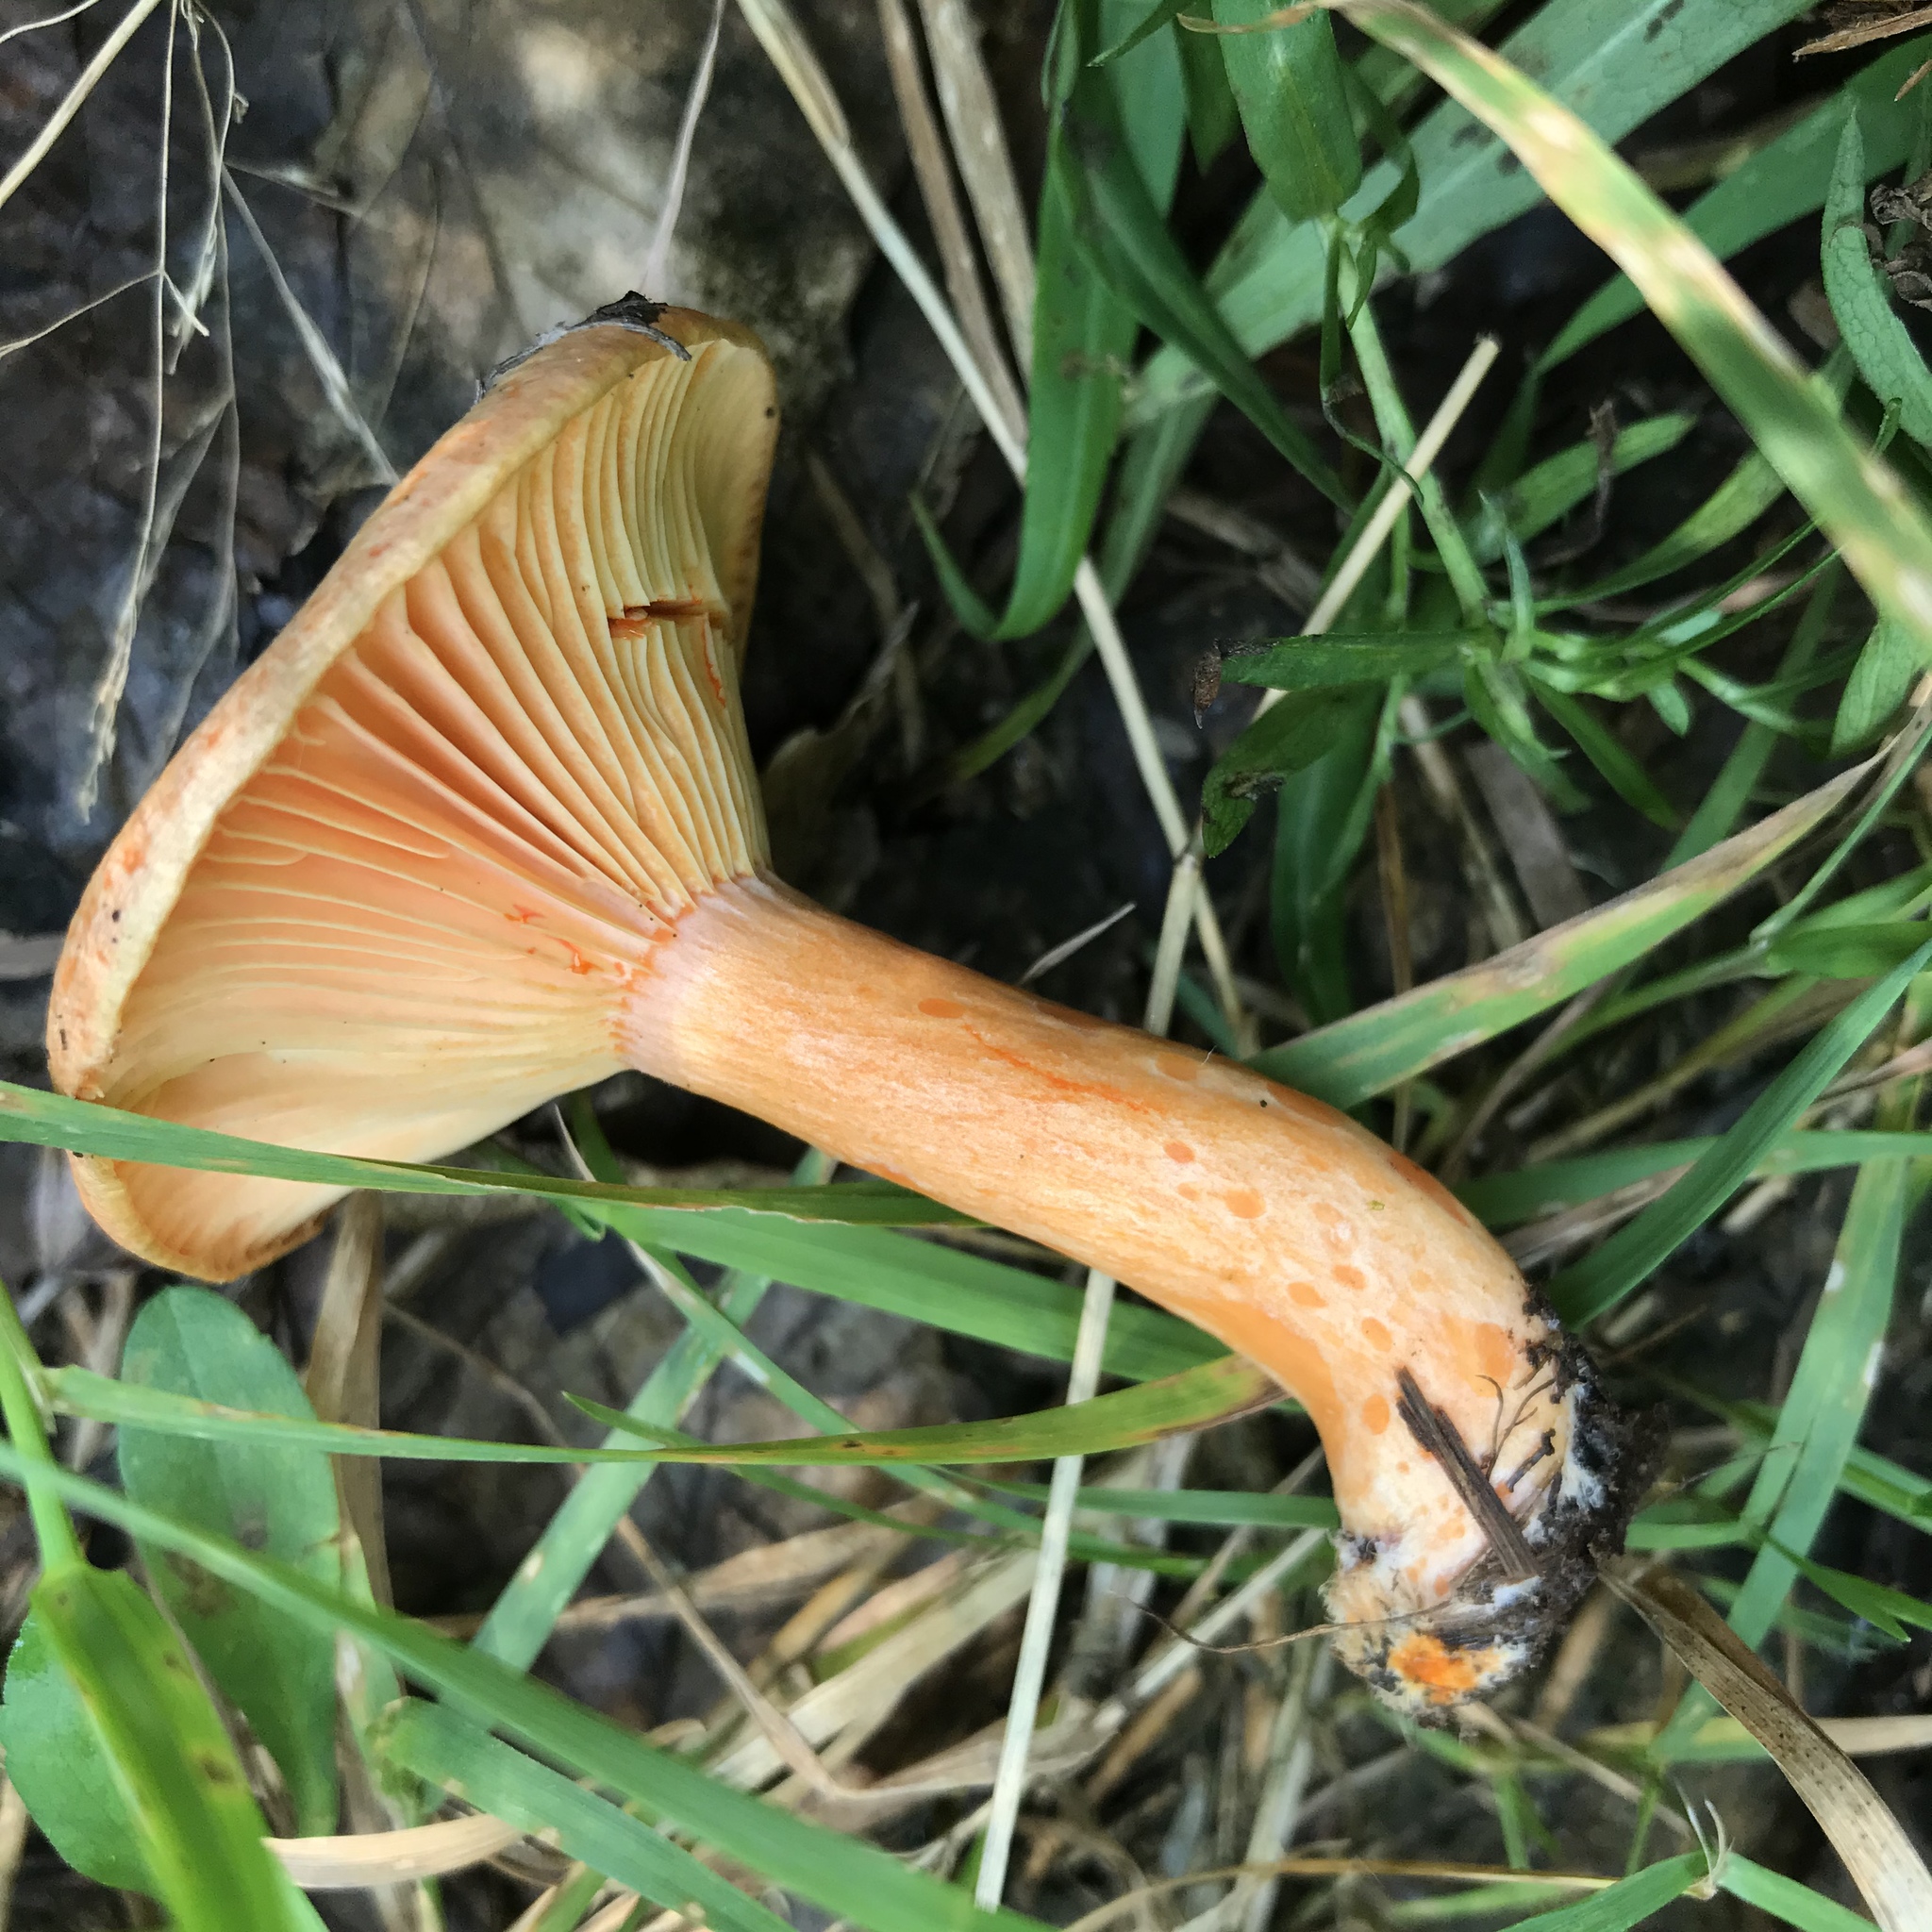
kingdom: Fungi
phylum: Basidiomycota
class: Agaricomycetes
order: Russulales
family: Russulaceae
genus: Lactarius
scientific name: Lactarius salmonicolor
